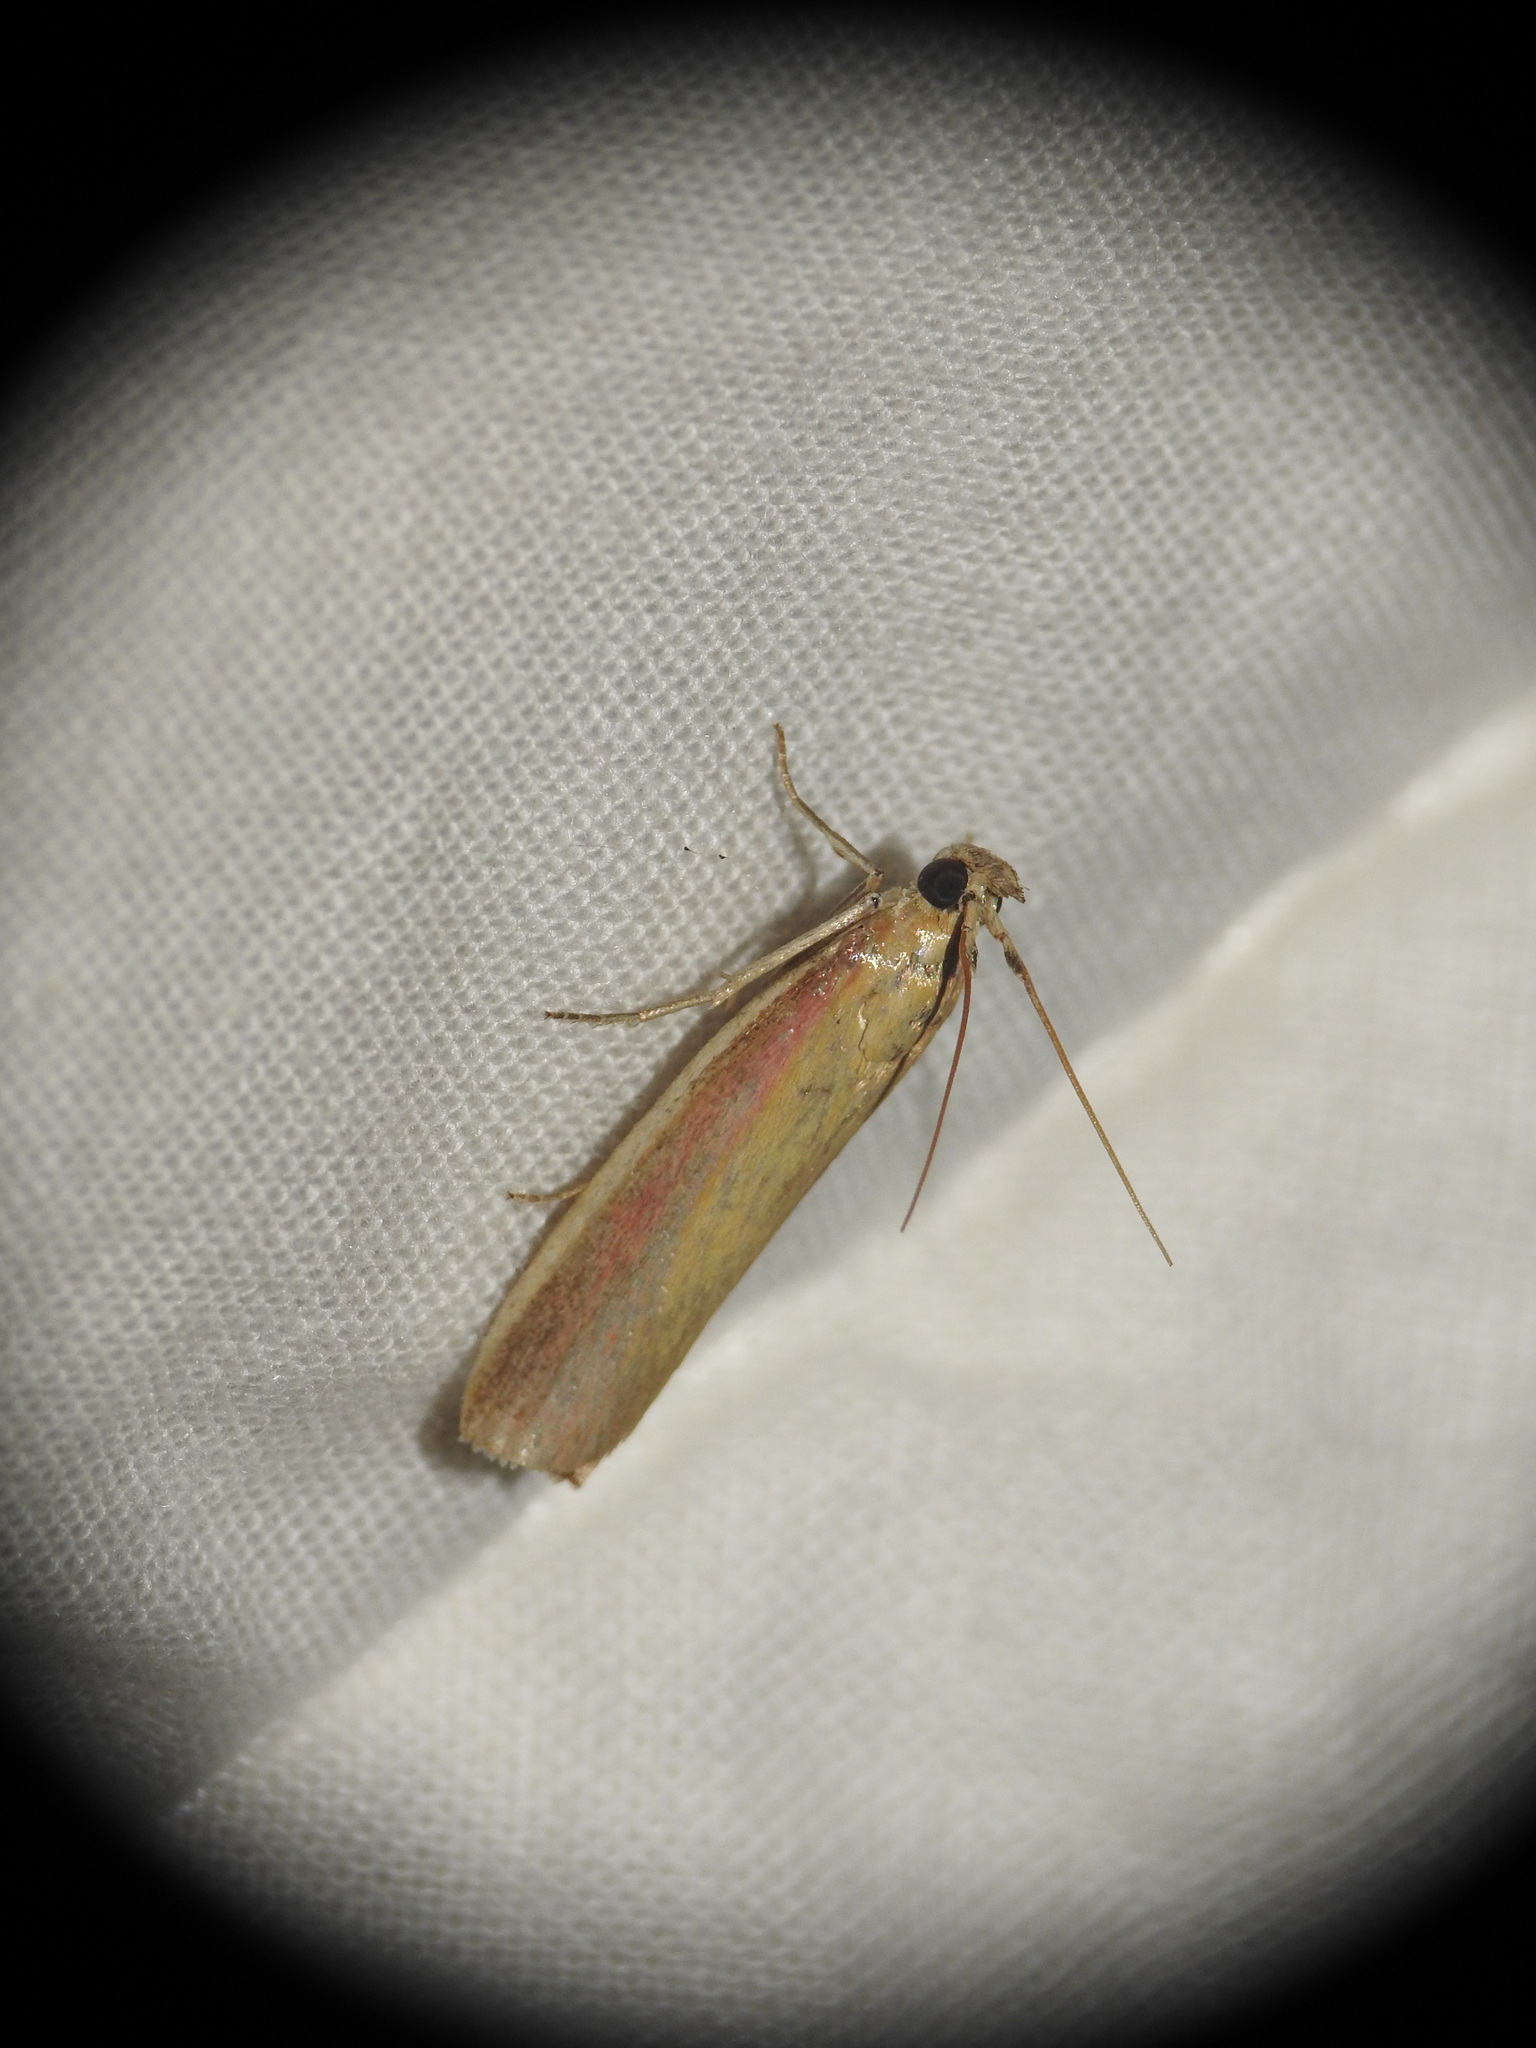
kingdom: Animalia
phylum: Arthropoda
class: Insecta
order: Lepidoptera
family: Pyralidae
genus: Oncocera
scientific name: Oncocera semirubella
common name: Rosy-striped knot-horn
